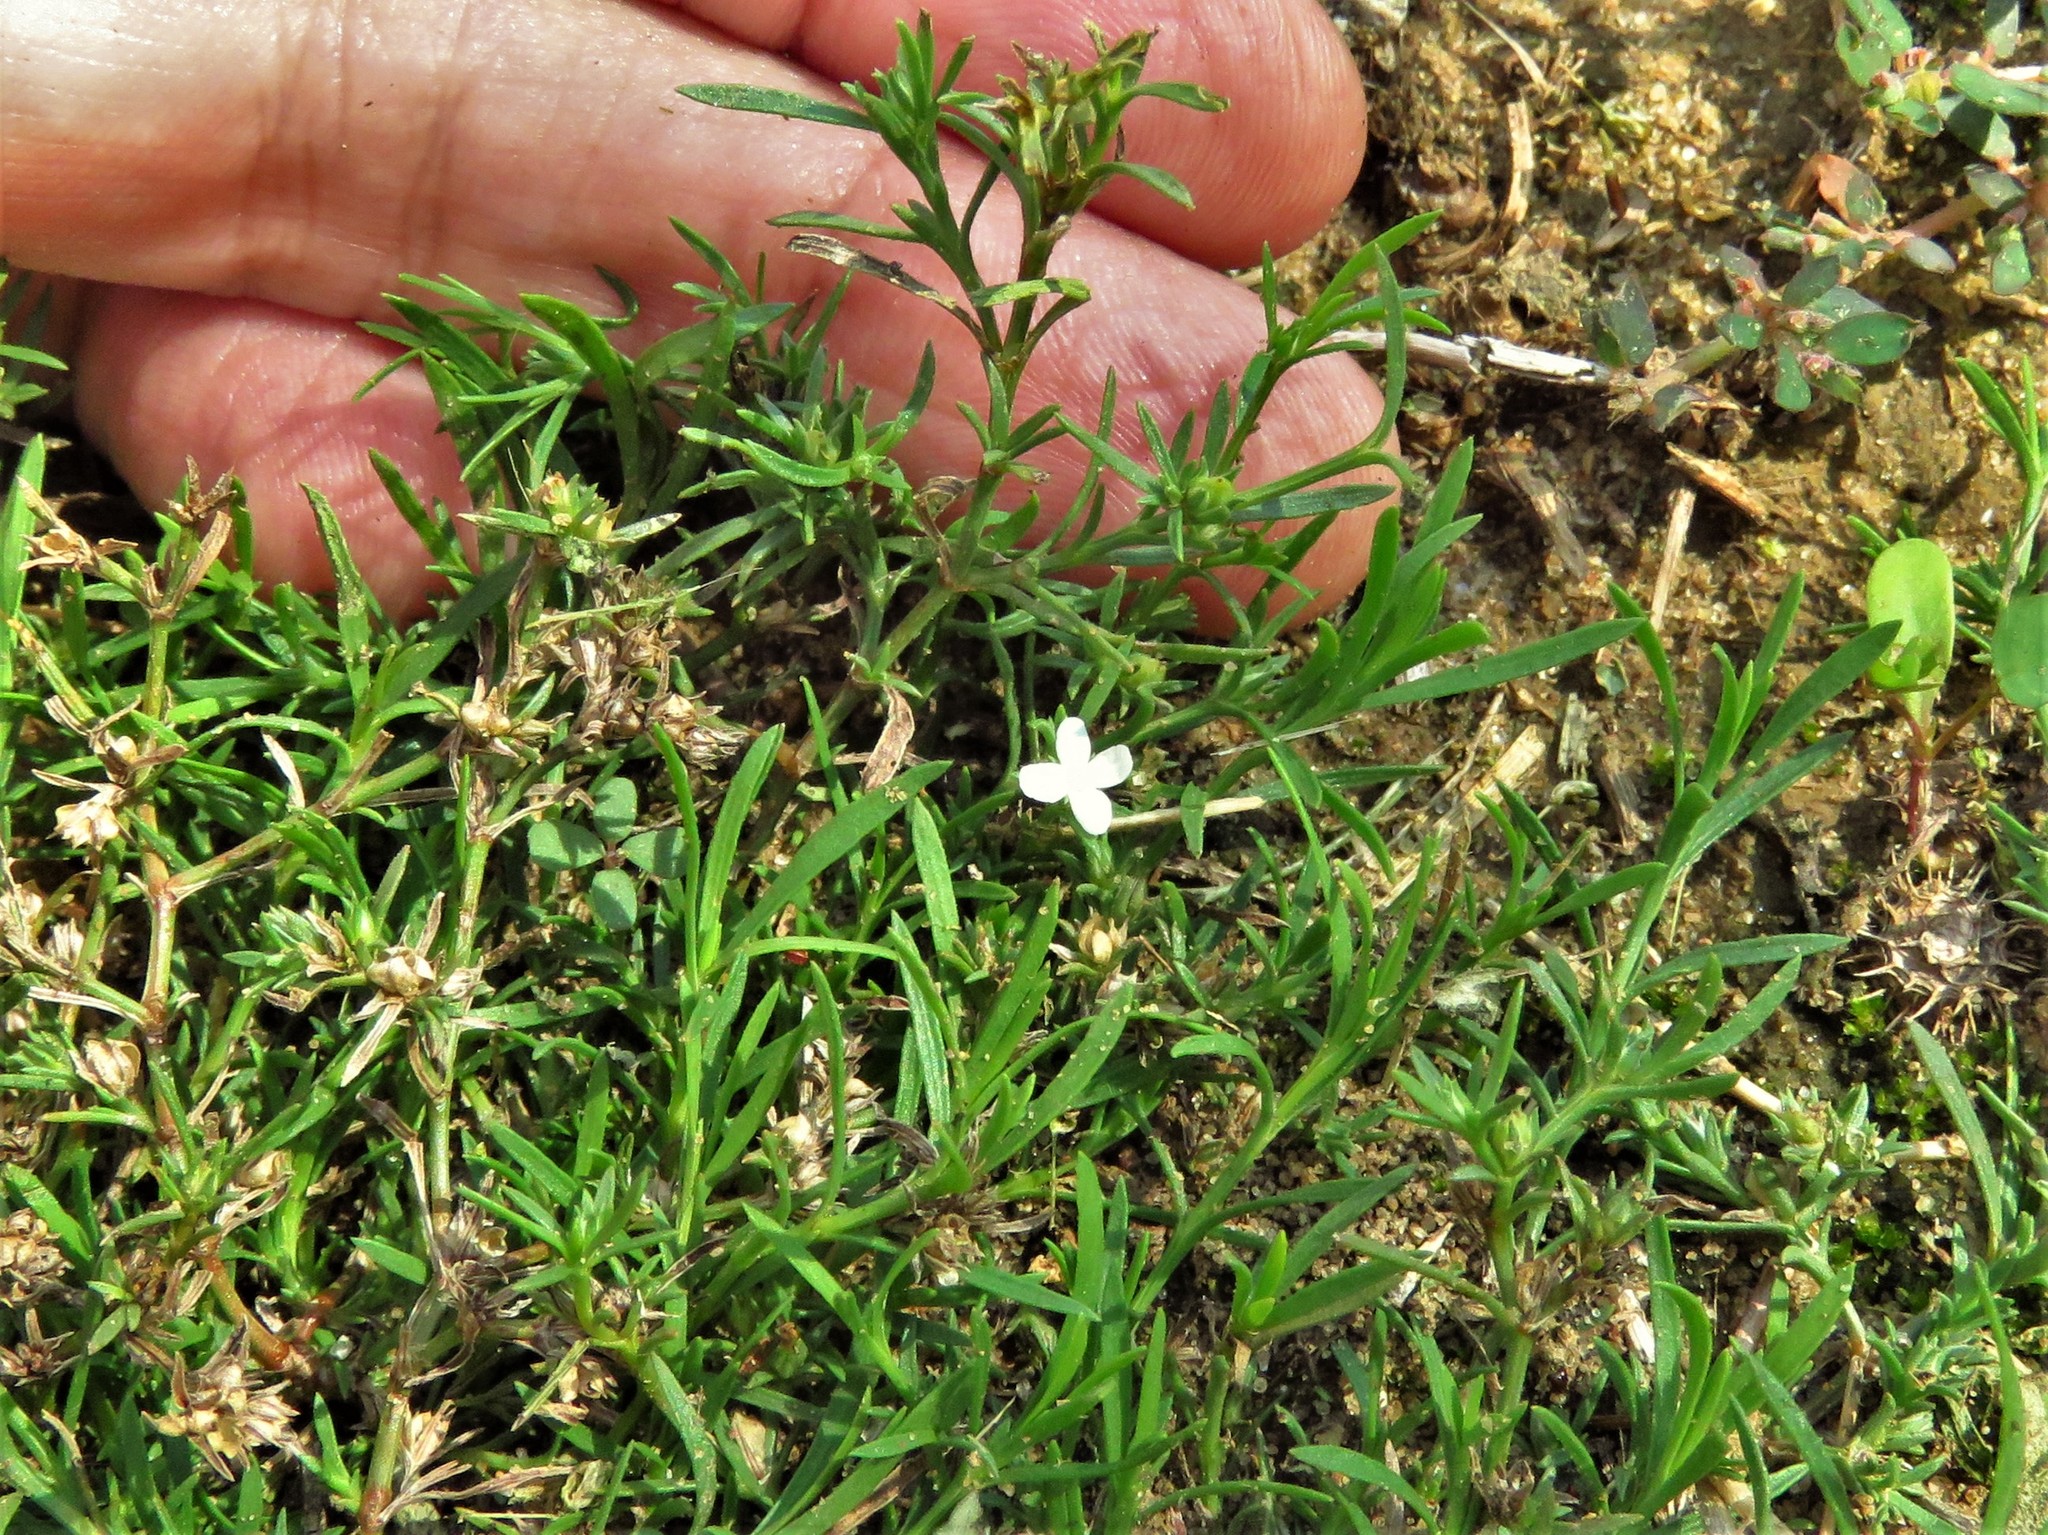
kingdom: Plantae
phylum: Tracheophyta
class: Magnoliopsida
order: Lamiales
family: Tetrachondraceae
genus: Polypremum
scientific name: Polypremum procumbens
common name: Juniper-leaf
